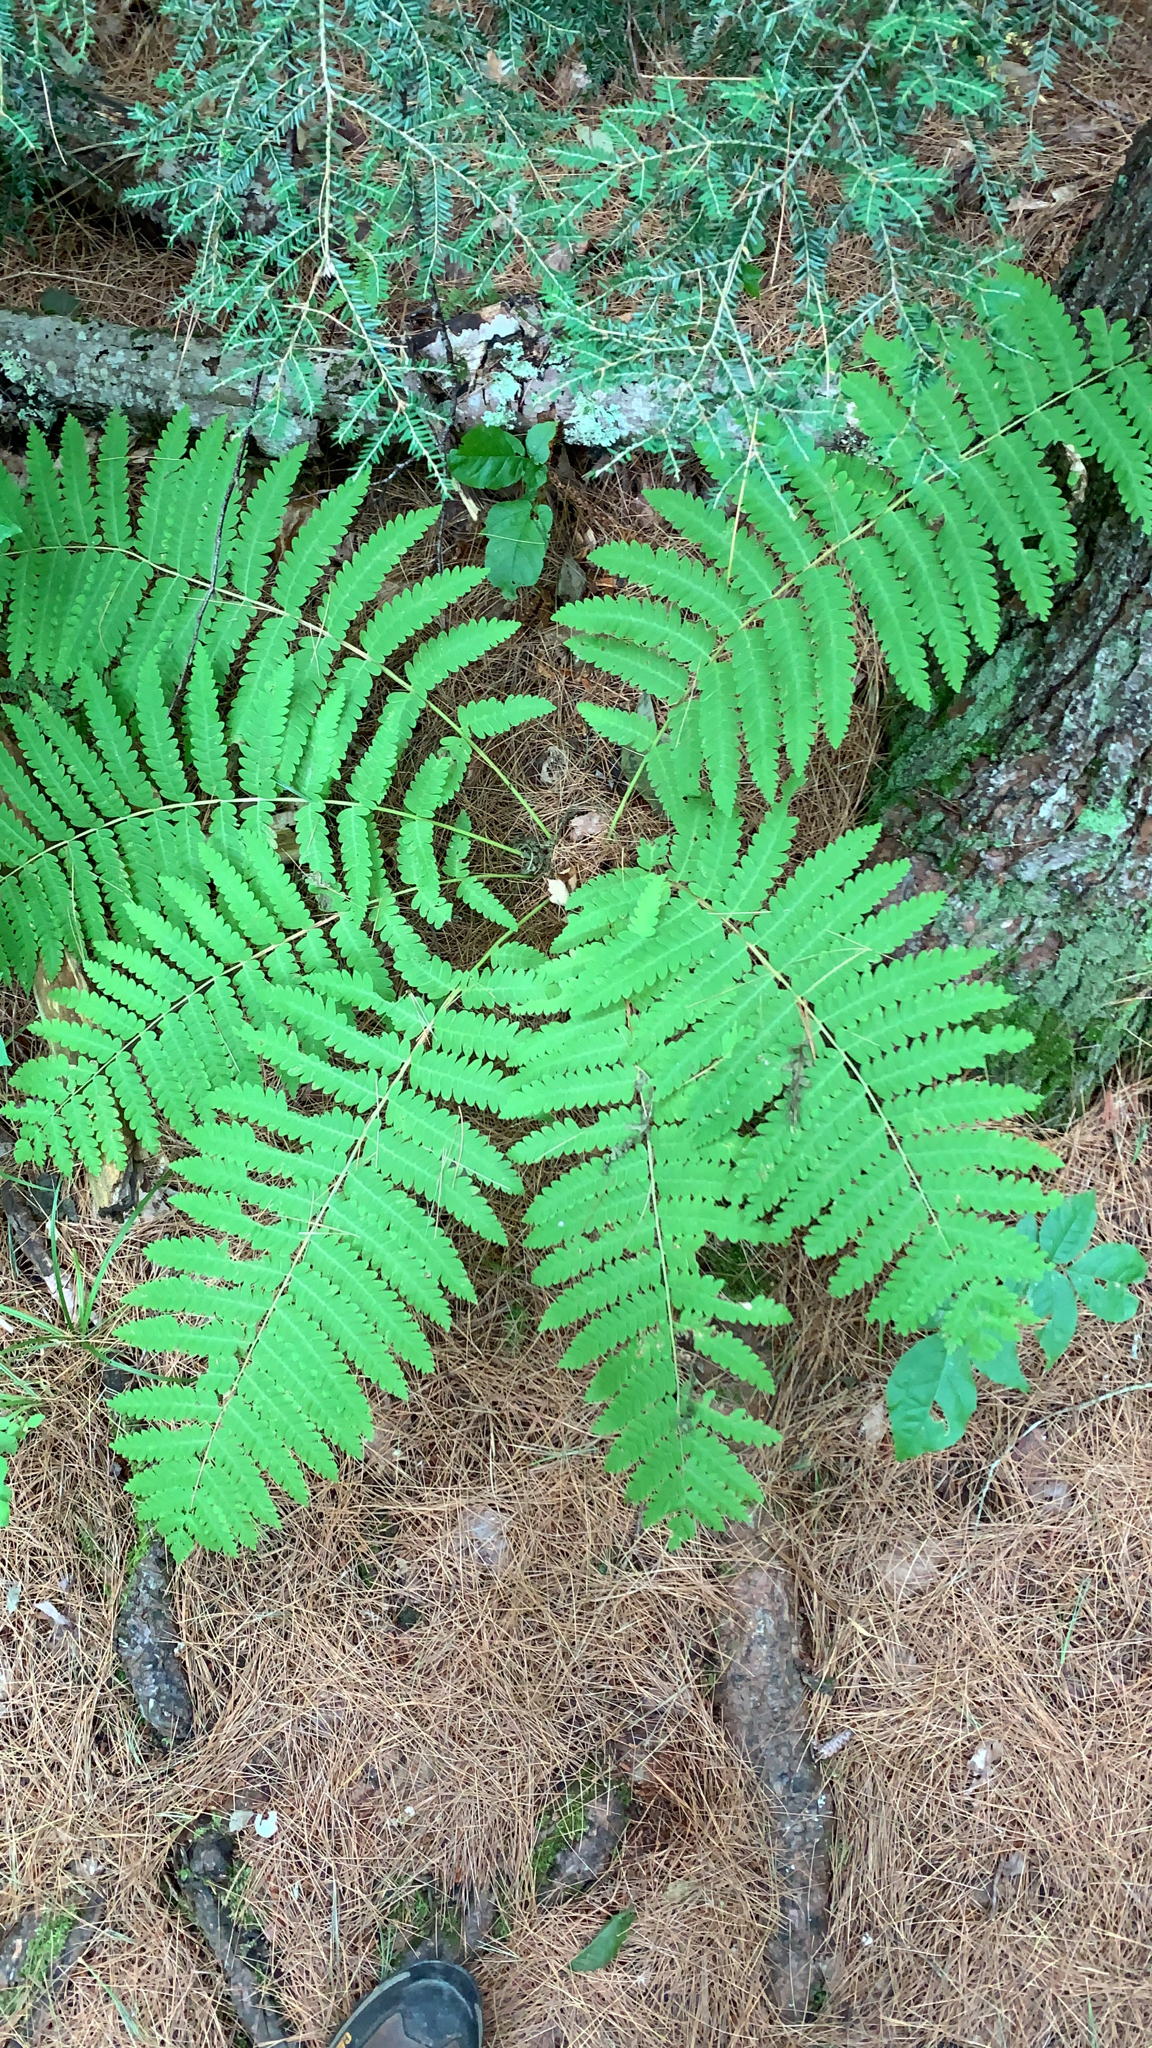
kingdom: Plantae
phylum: Tracheophyta
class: Polypodiopsida
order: Osmundales
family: Osmundaceae
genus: Claytosmunda
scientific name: Claytosmunda claytoniana
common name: Clayton's fern
